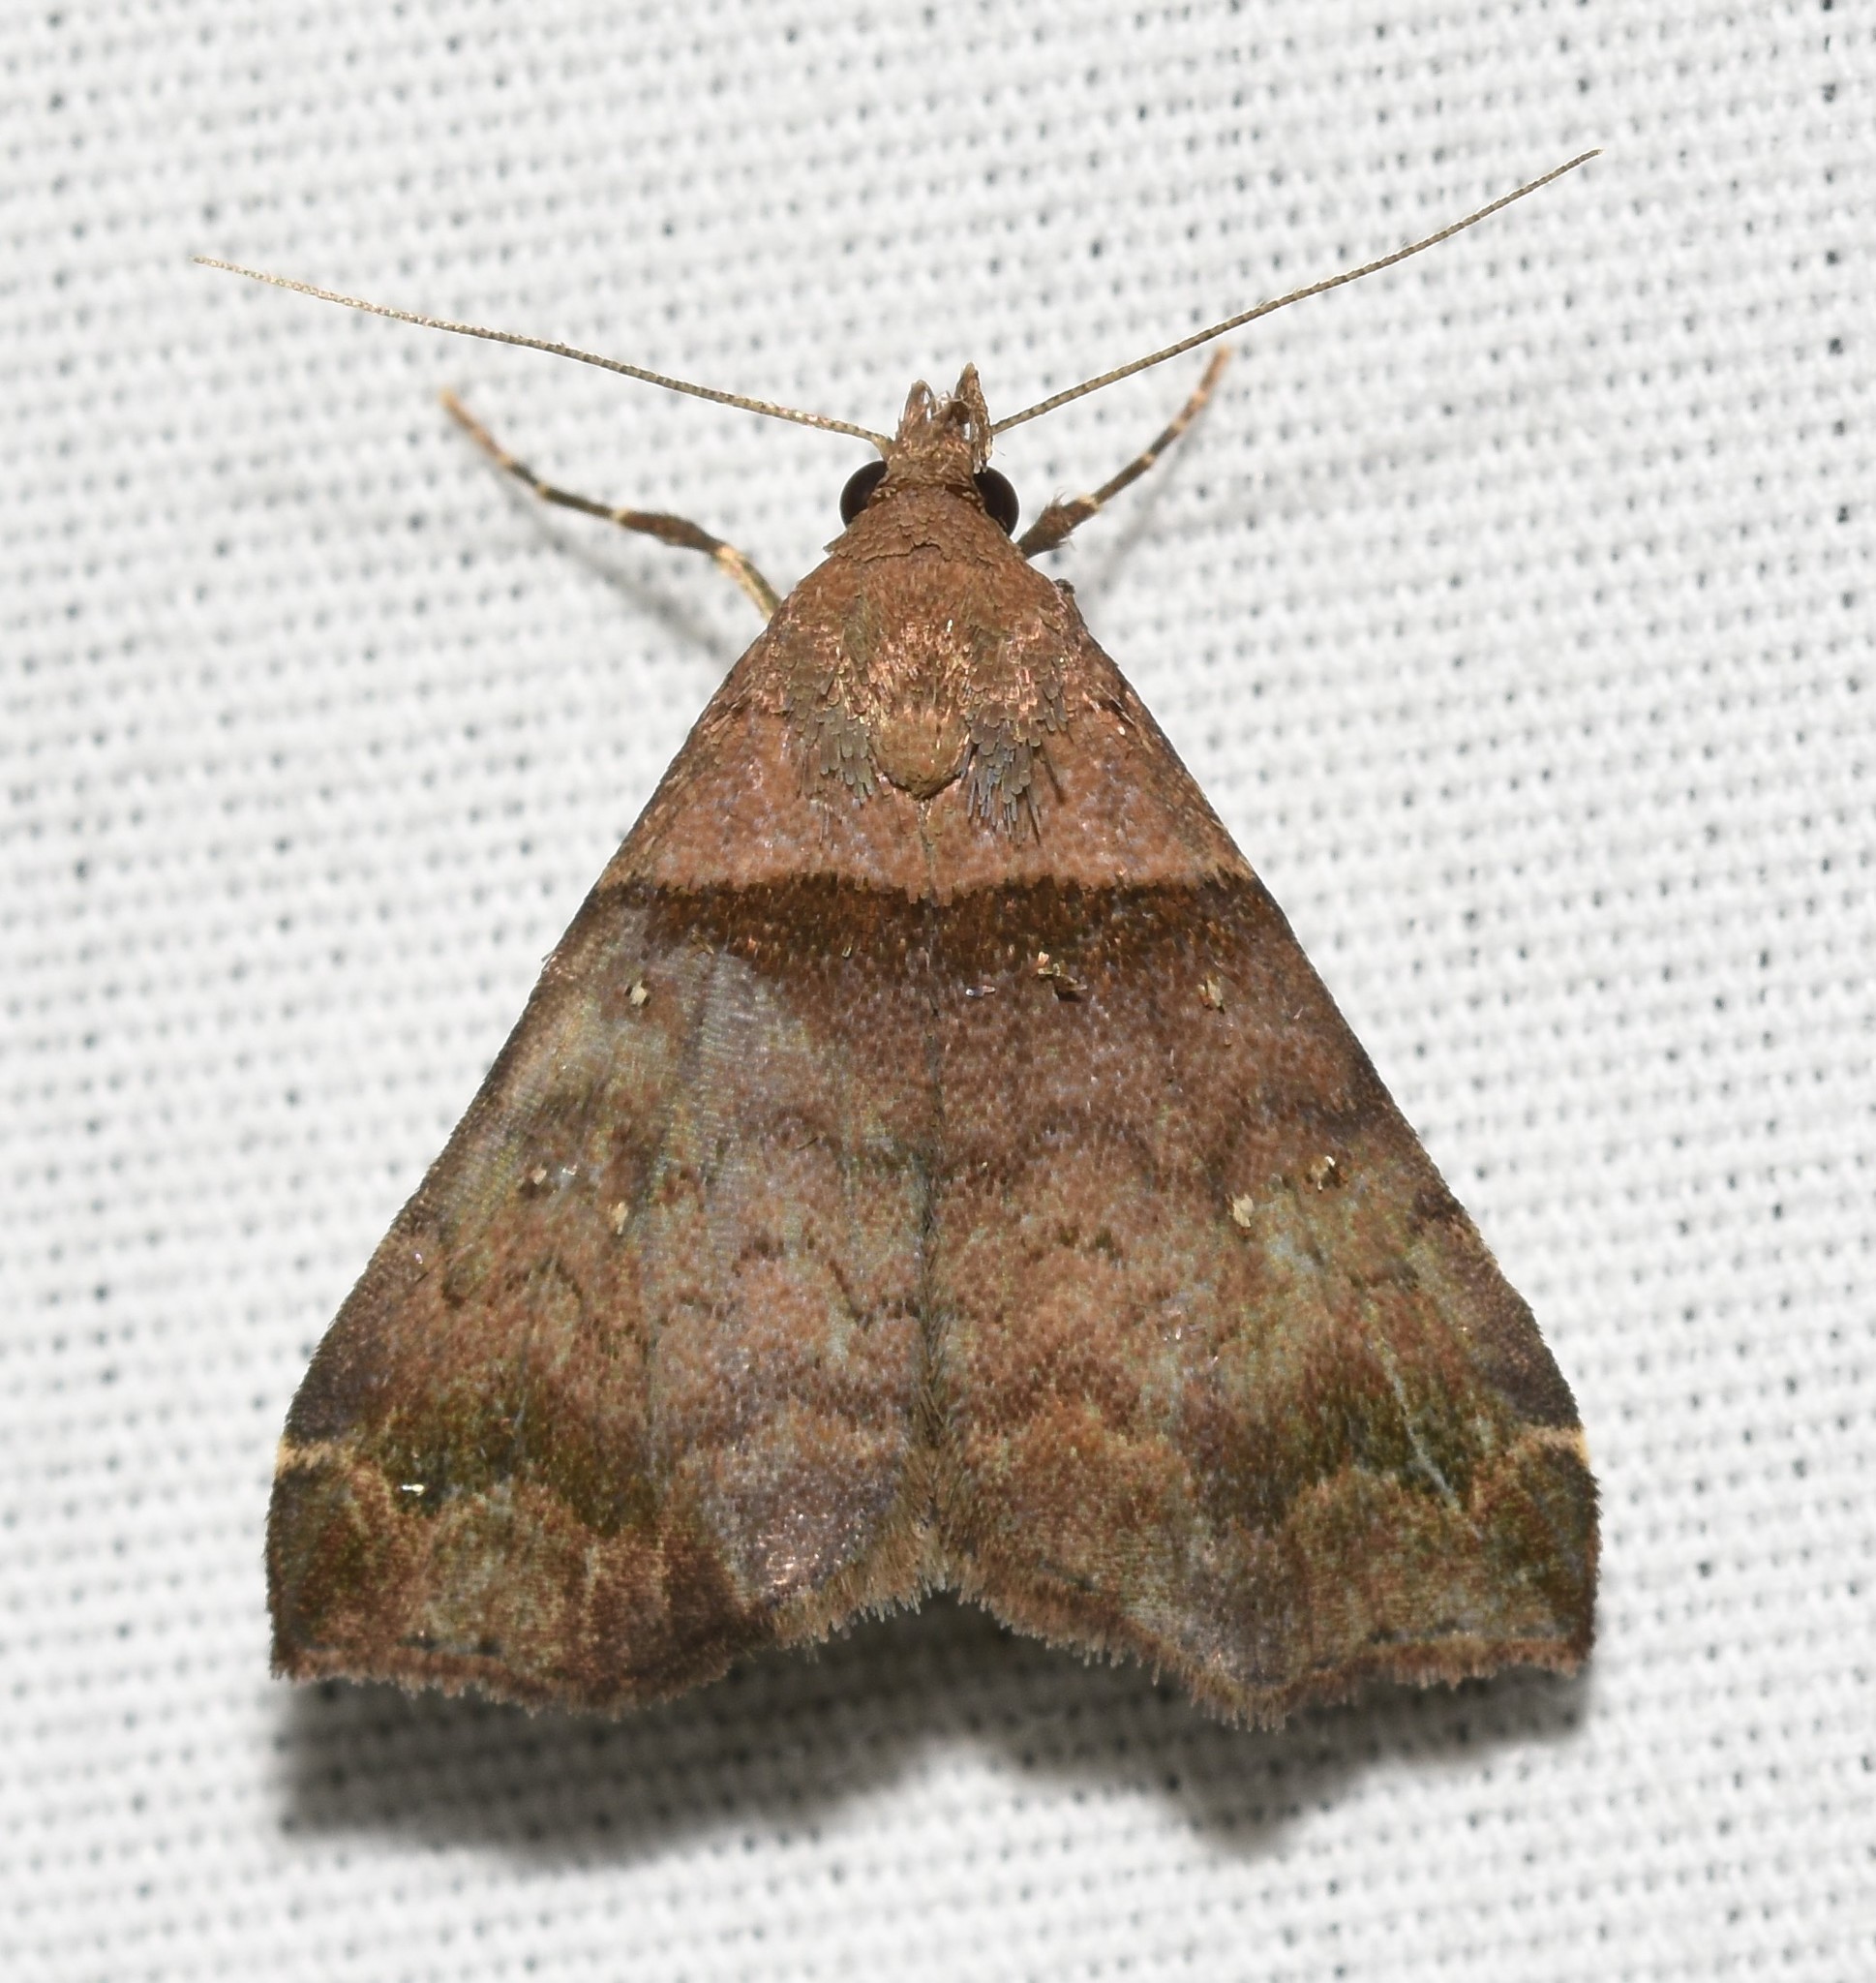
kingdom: Animalia
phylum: Arthropoda
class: Insecta
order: Lepidoptera
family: Erebidae
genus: Lascoria
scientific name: Lascoria ambigualis
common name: Ambiguous moth
